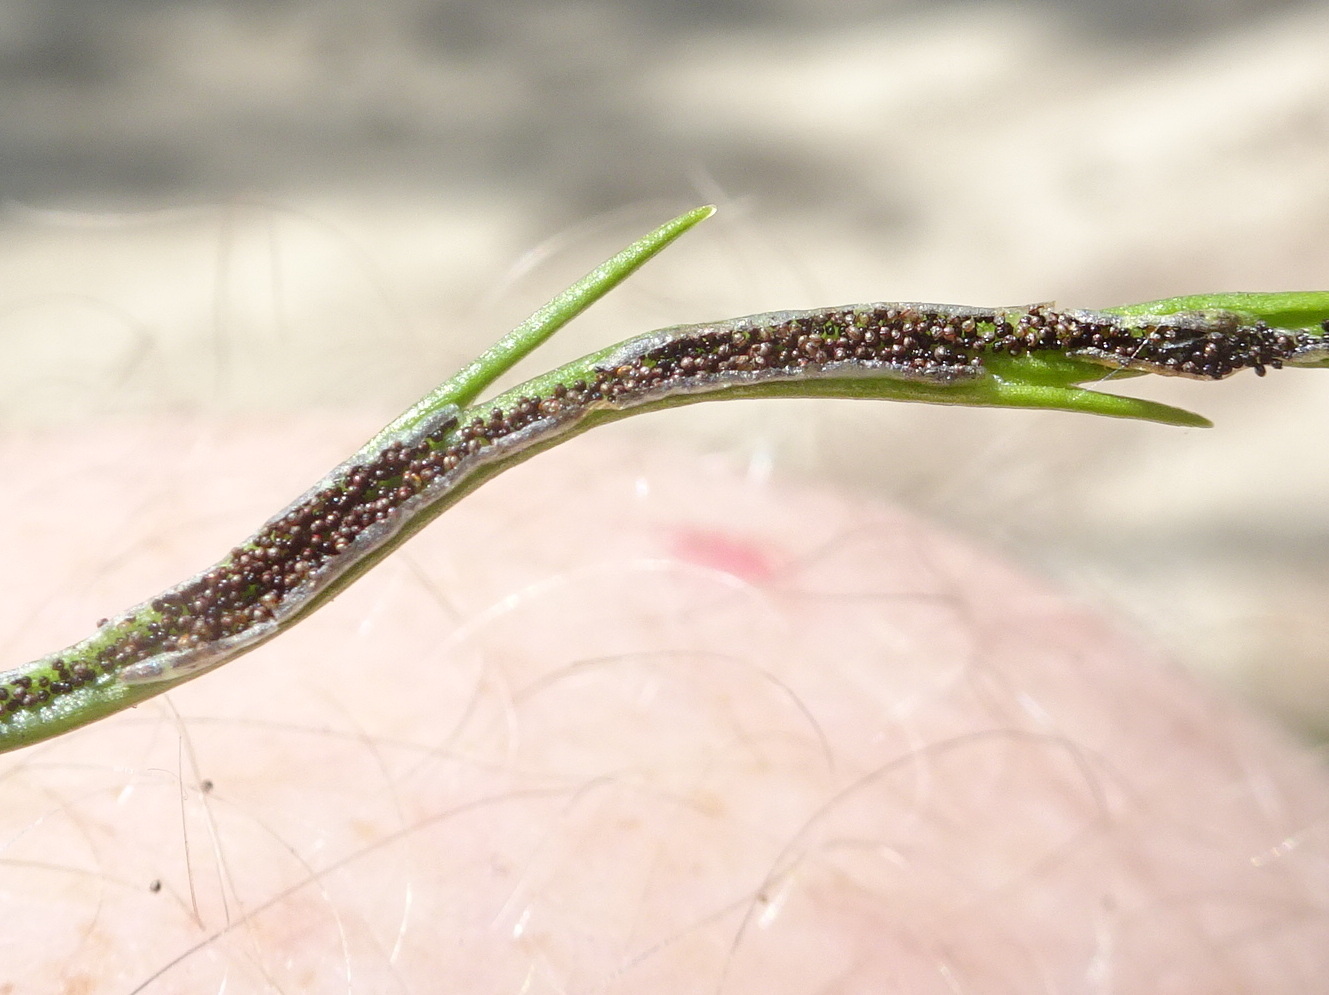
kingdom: Plantae
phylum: Tracheophyta
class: Polypodiopsida
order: Polypodiales
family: Aspleniaceae
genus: Asplenium
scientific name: Asplenium septentrionale
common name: Forked spleenwort
